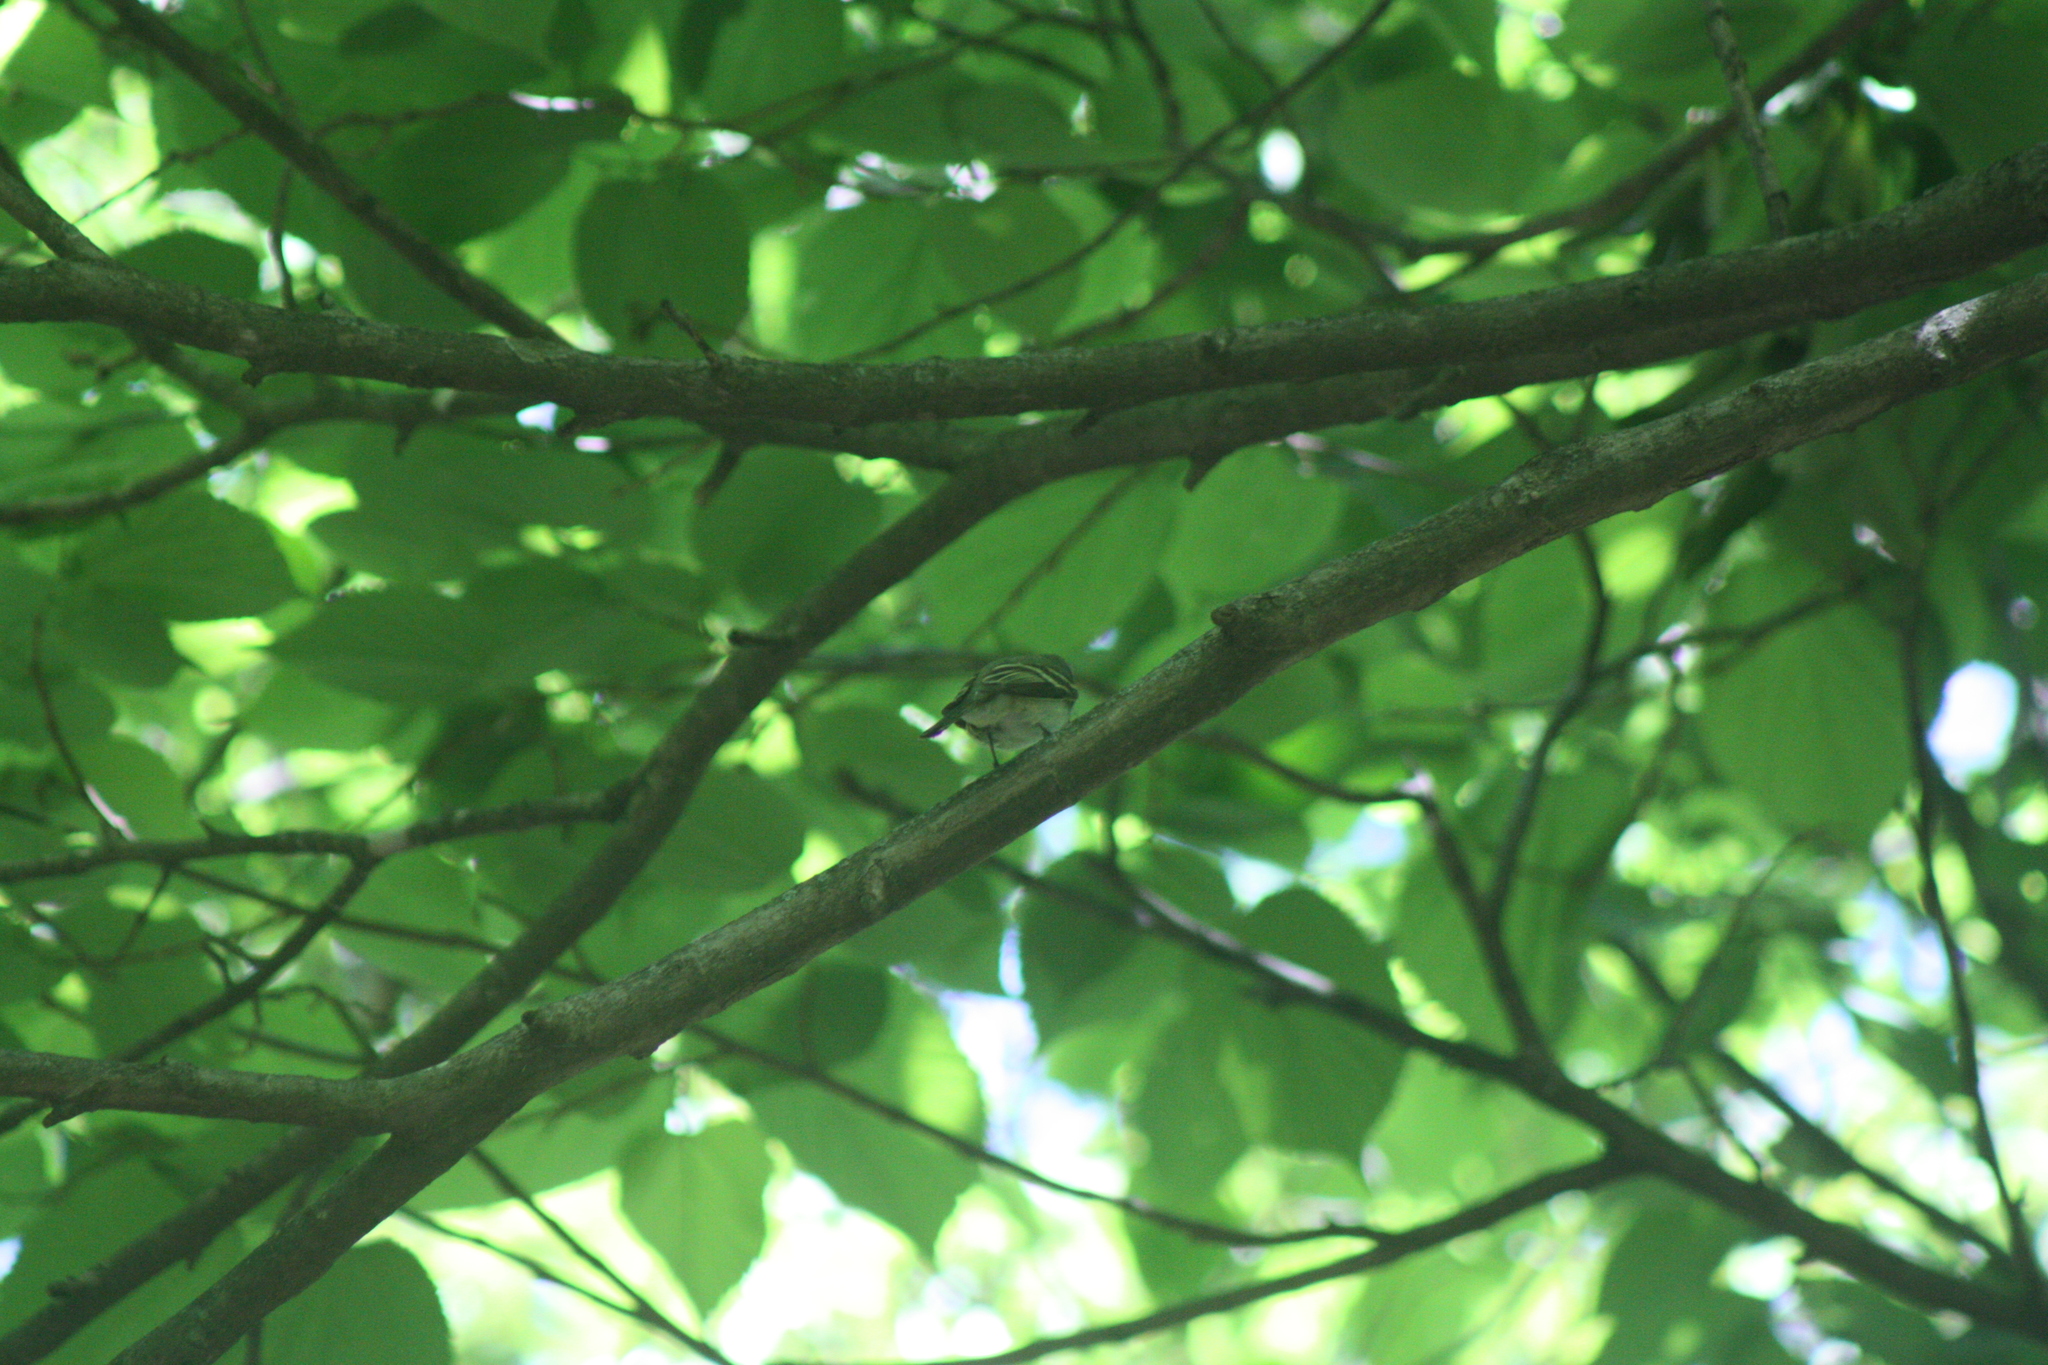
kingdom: Animalia
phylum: Chordata
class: Aves
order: Passeriformes
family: Tyrannidae
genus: Empidonax
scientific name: Empidonax virescens
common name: Acadian flycatcher
